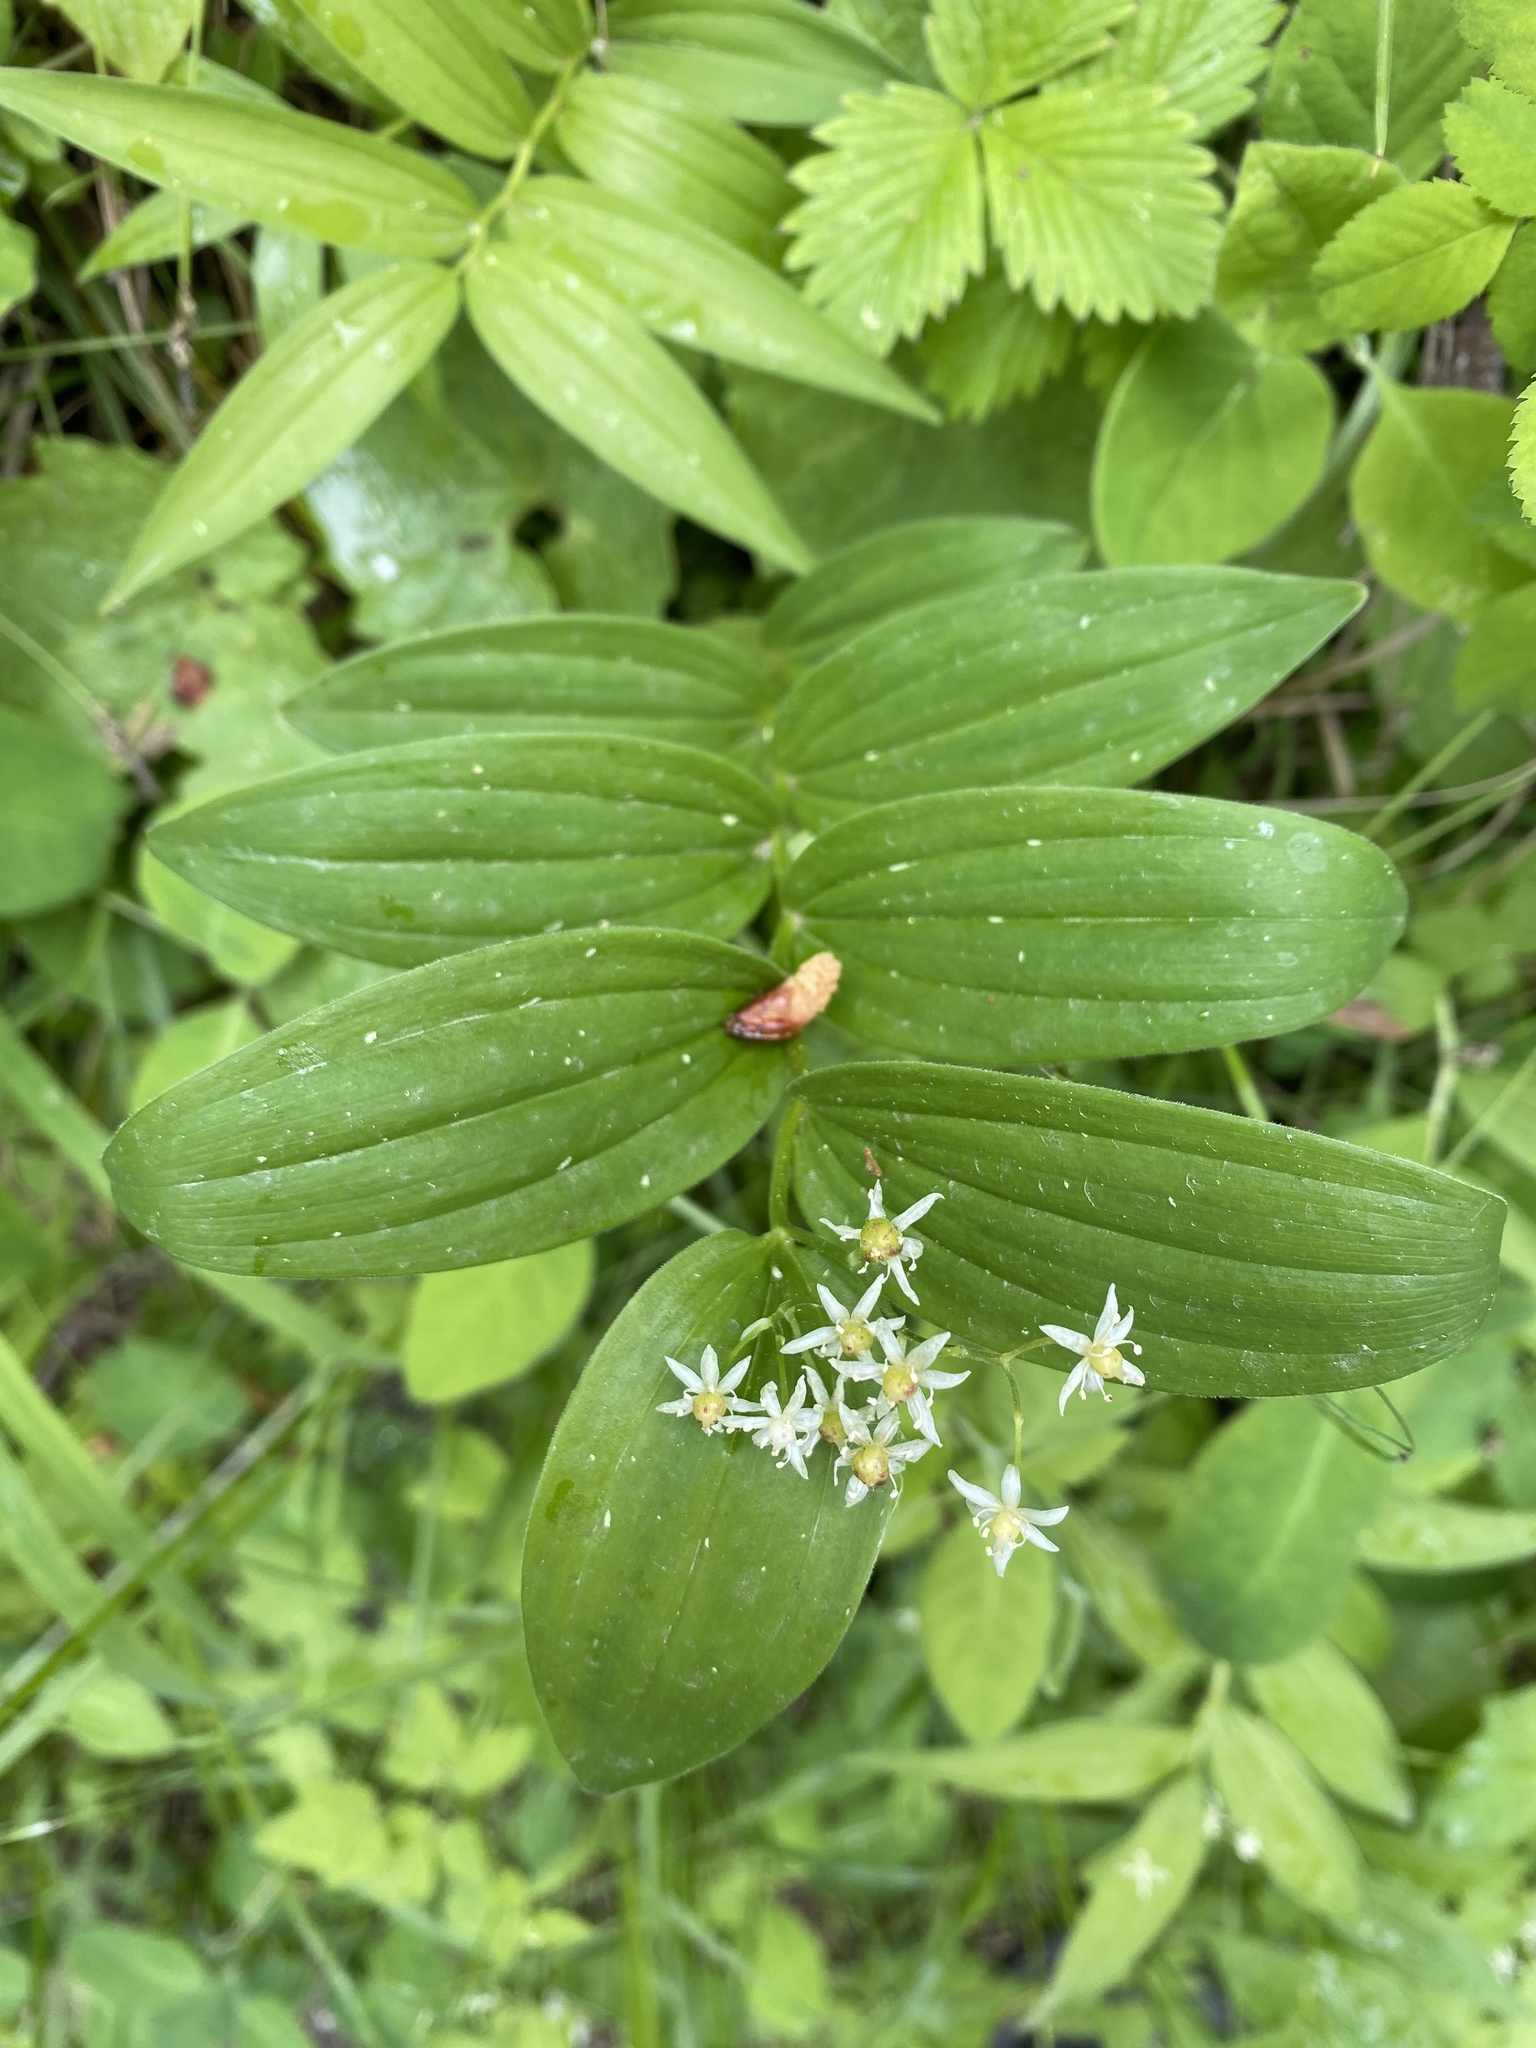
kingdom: Plantae
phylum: Tracheophyta
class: Liliopsida
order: Asparagales
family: Asparagaceae
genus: Maianthemum
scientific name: Maianthemum stellatum
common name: Little false solomon's seal
